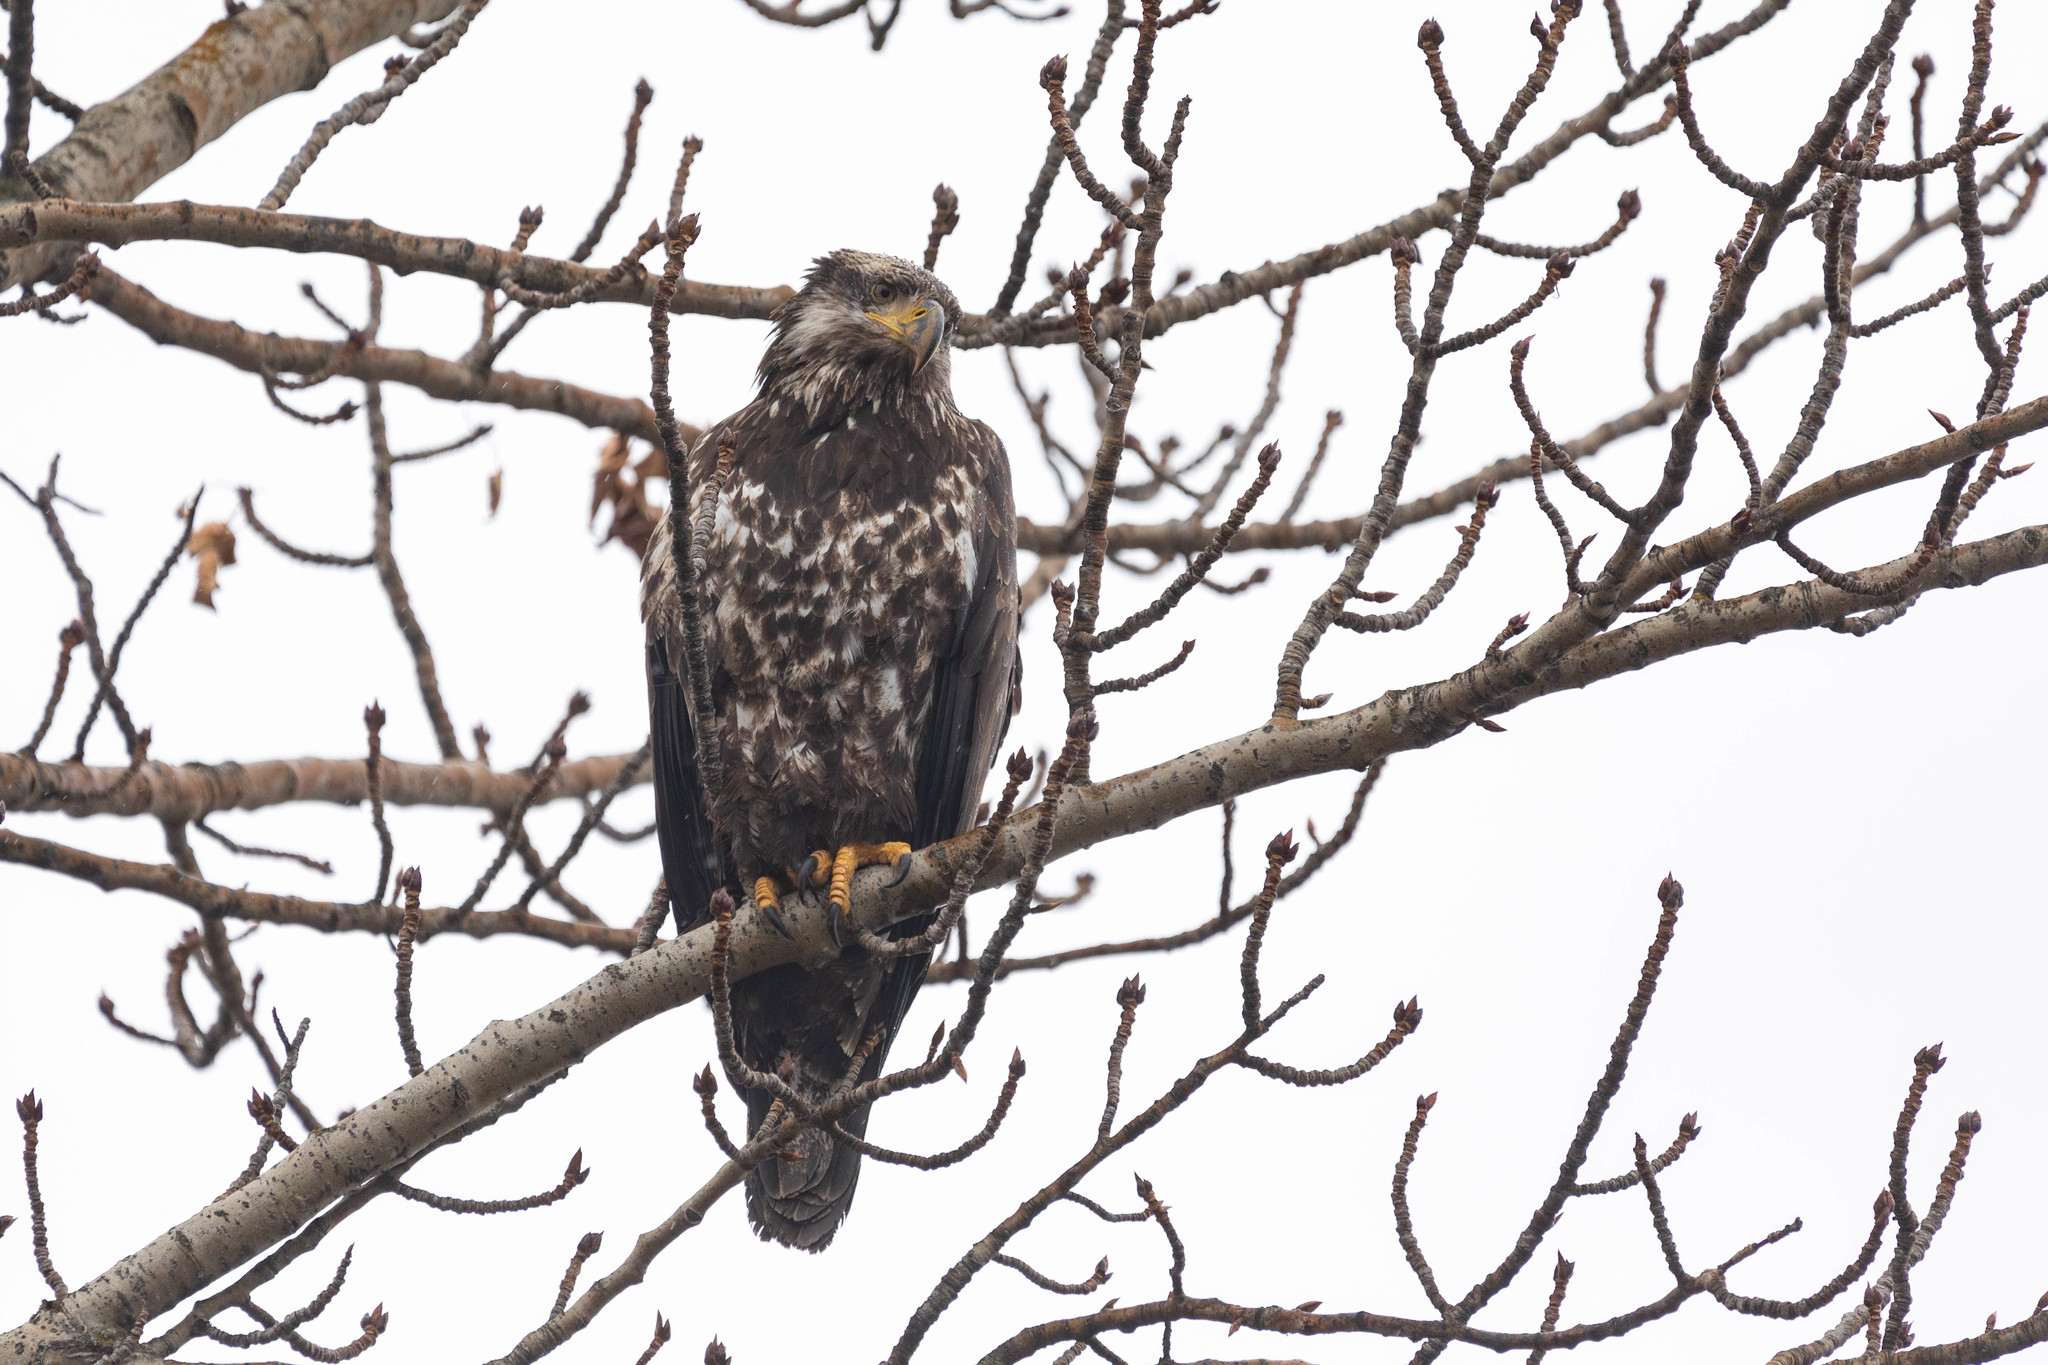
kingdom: Animalia
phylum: Chordata
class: Aves
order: Accipitriformes
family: Accipitridae
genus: Haliaeetus
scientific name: Haliaeetus leucocephalus
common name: Bald eagle
